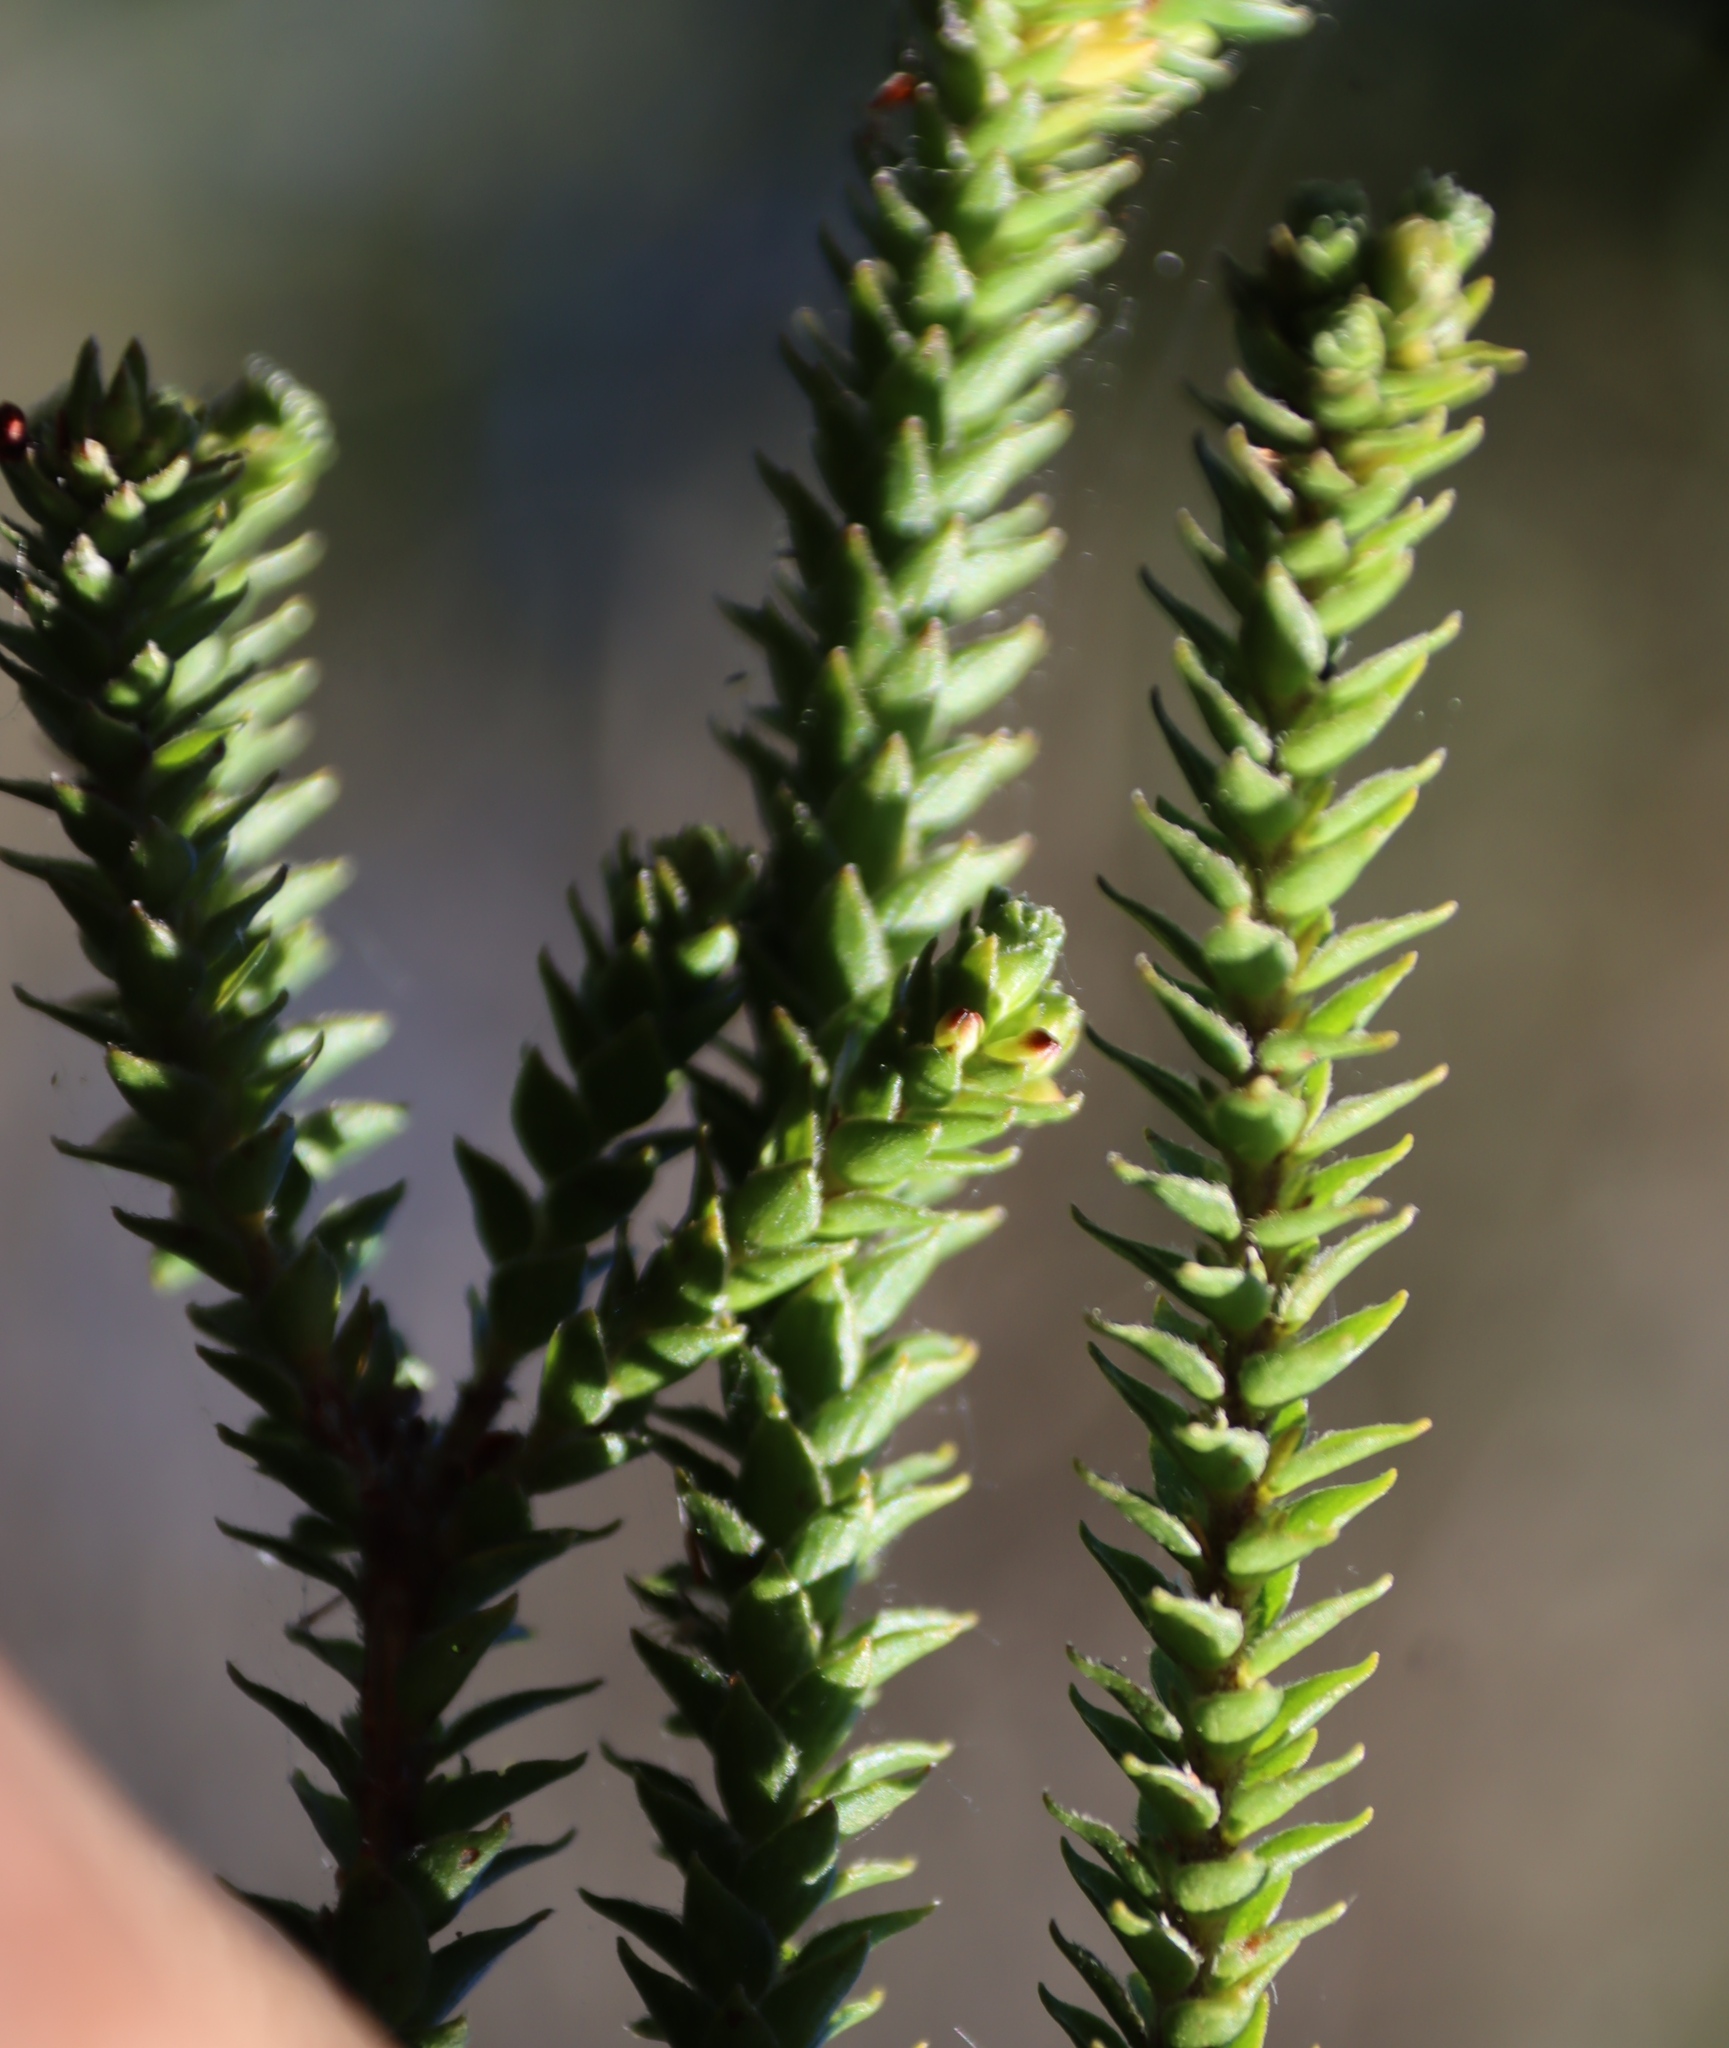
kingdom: Plantae
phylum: Tracheophyta
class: Magnoliopsida
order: Malvales
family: Thymelaeaceae
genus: Struthiola
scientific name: Struthiola hirsuta
